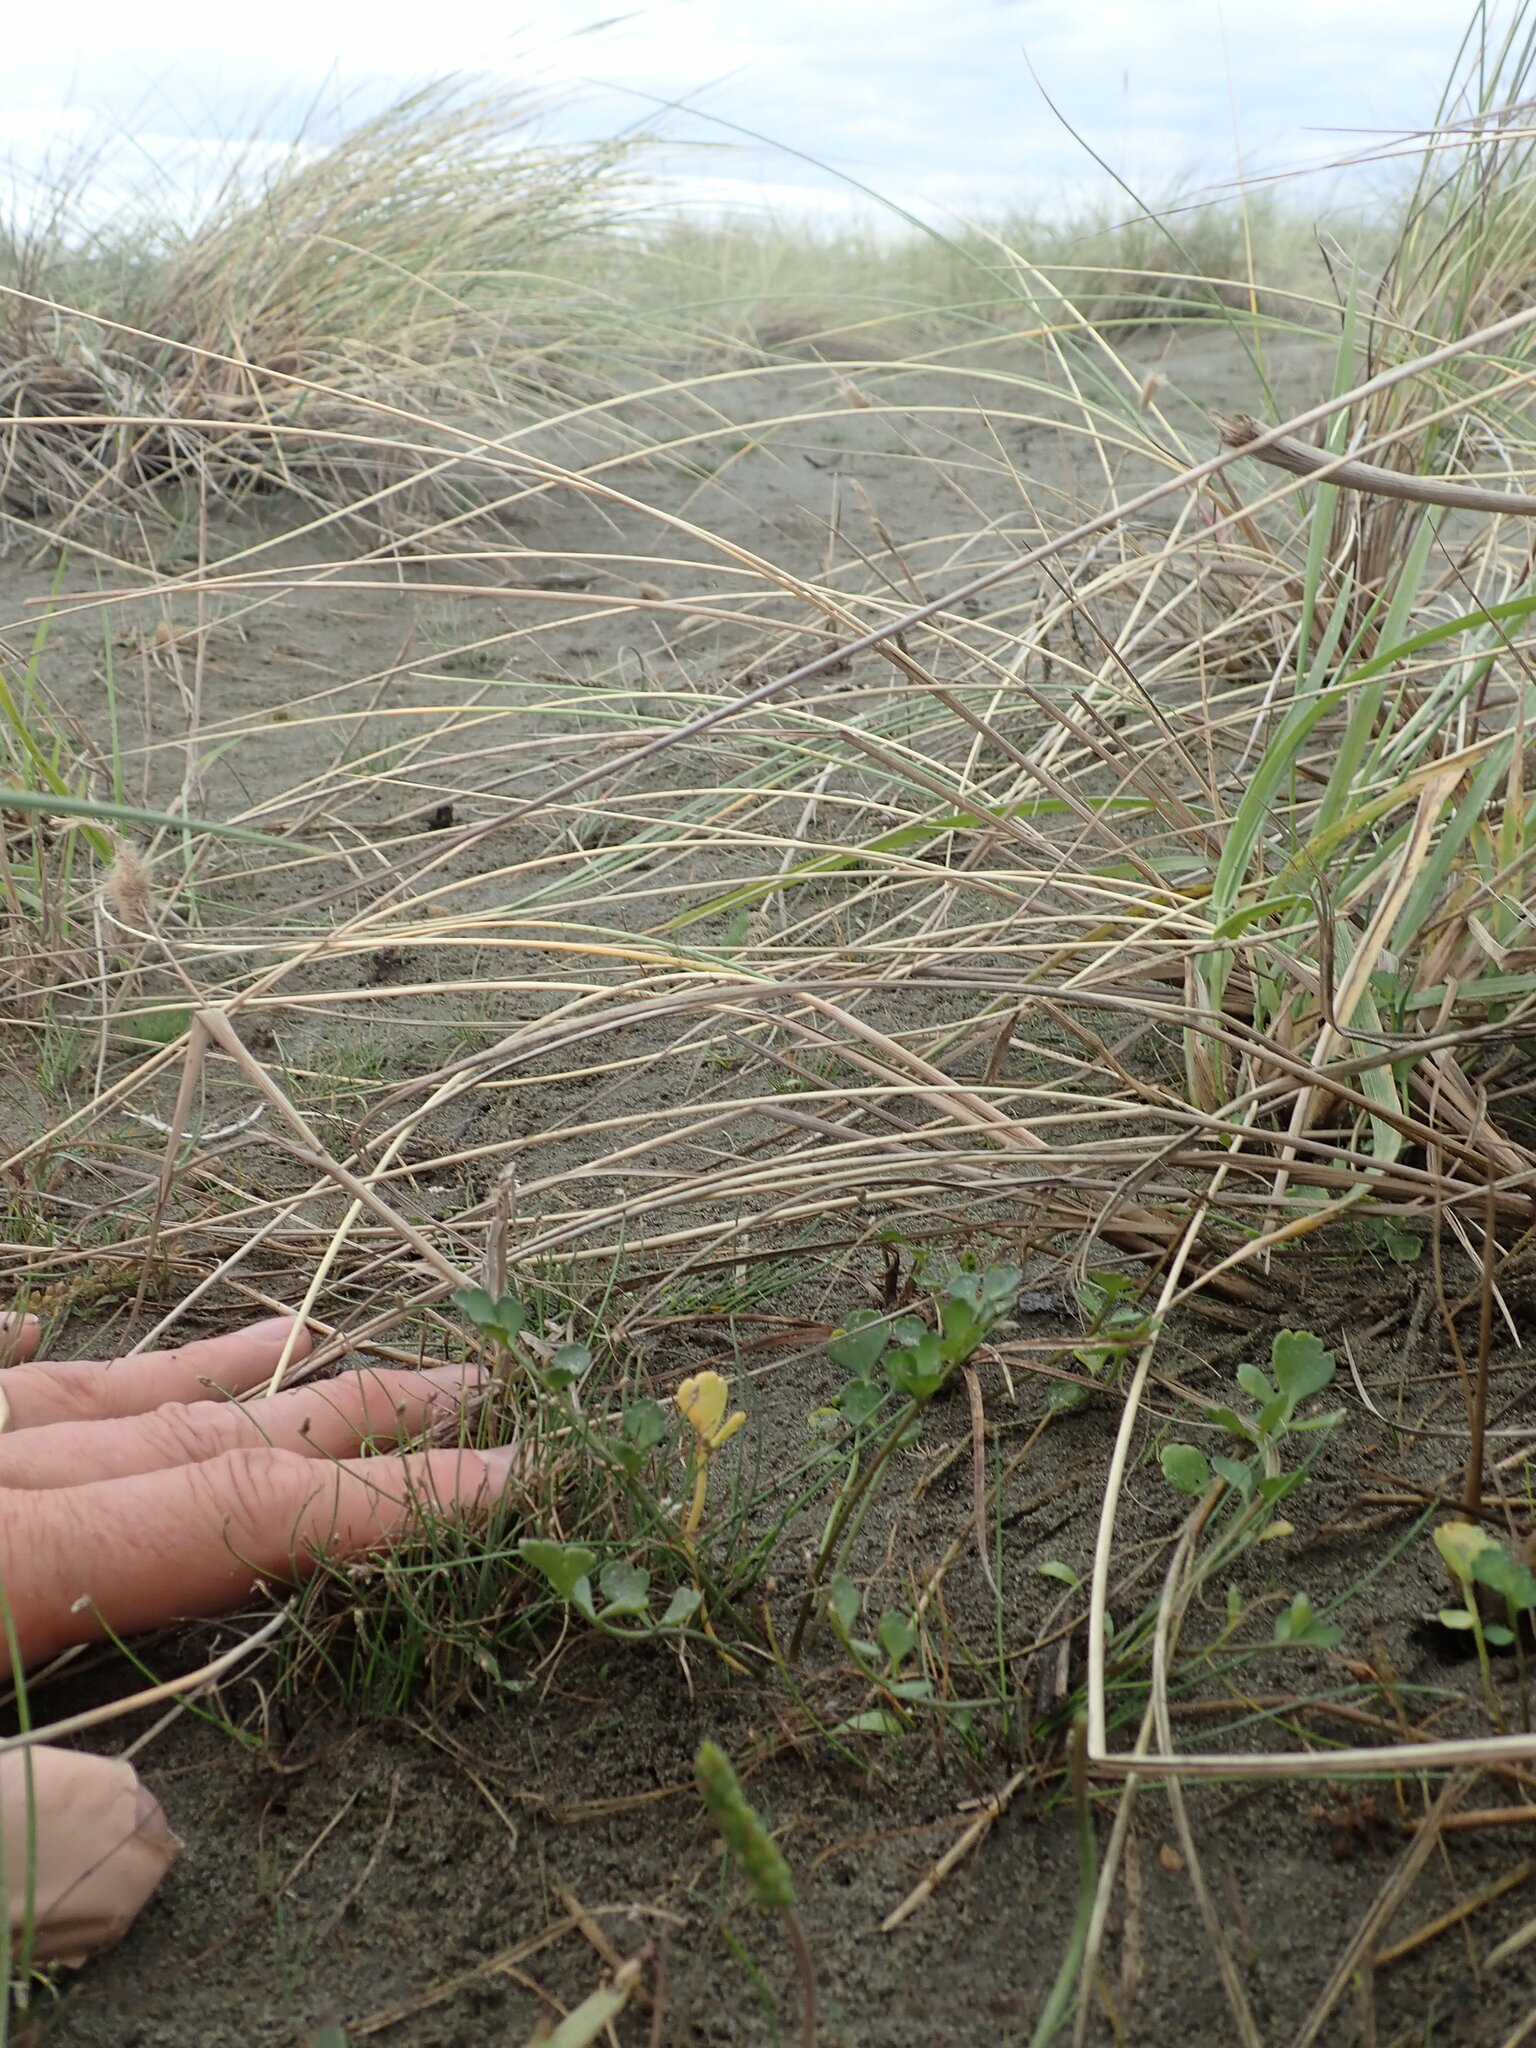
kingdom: Plantae
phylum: Tracheophyta
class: Magnoliopsida
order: Apiales
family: Apiaceae
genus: Apium
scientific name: Apium prostratum
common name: Prostrate marshwort
